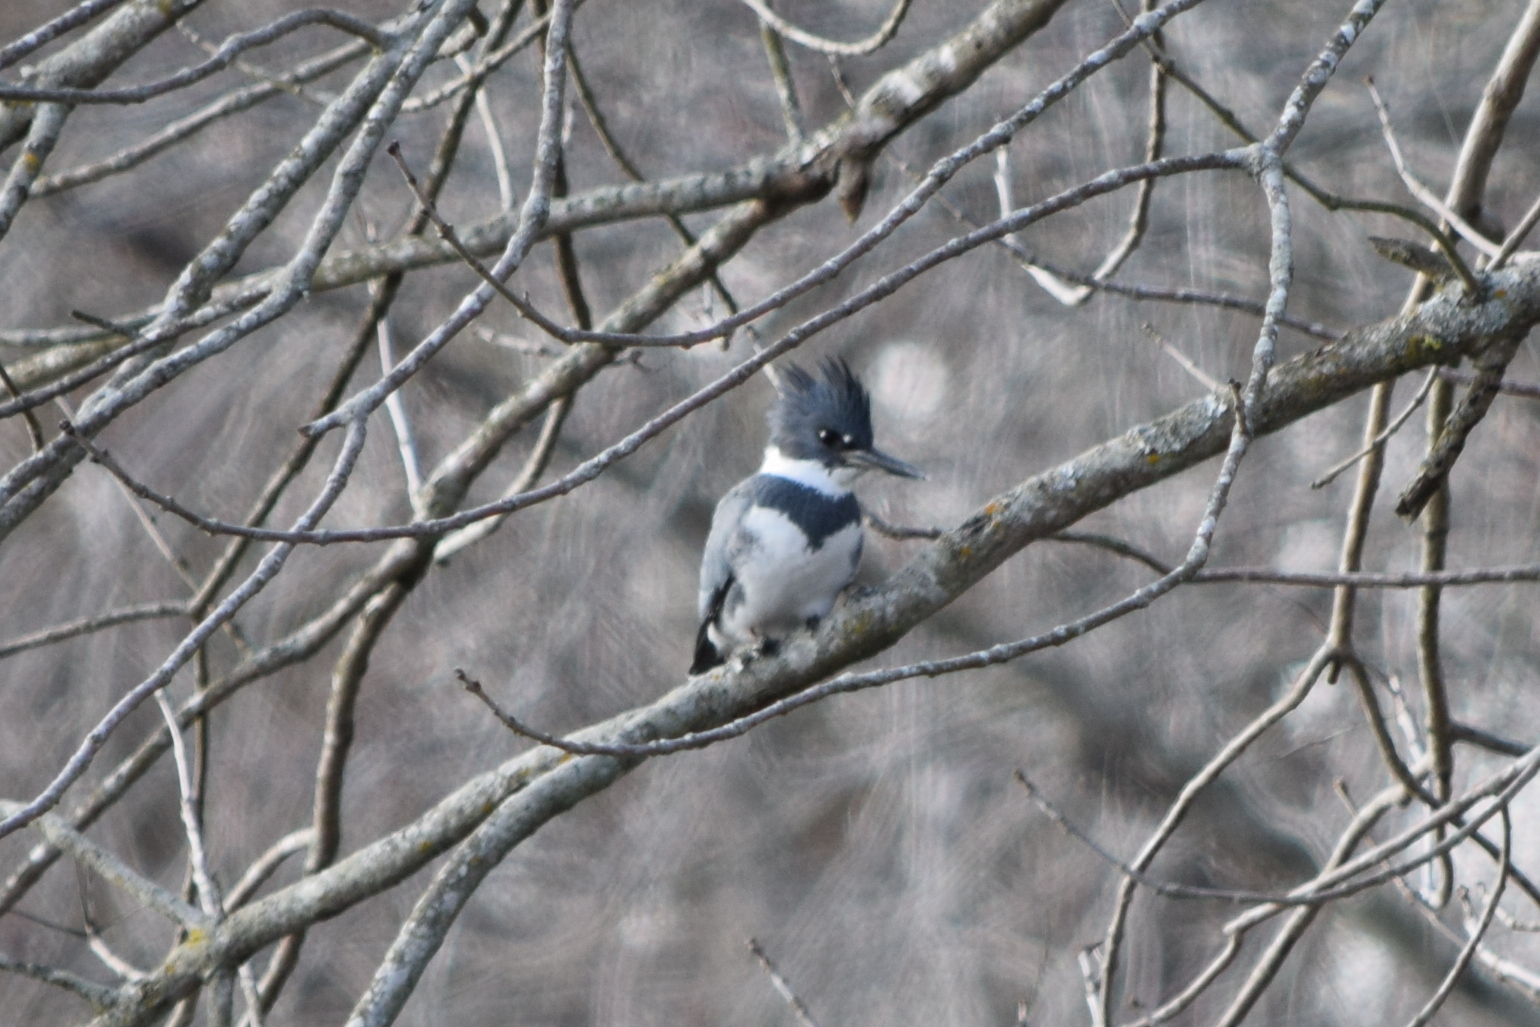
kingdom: Animalia
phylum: Chordata
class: Aves
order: Coraciiformes
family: Alcedinidae
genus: Megaceryle
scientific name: Megaceryle alcyon
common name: Belted kingfisher
